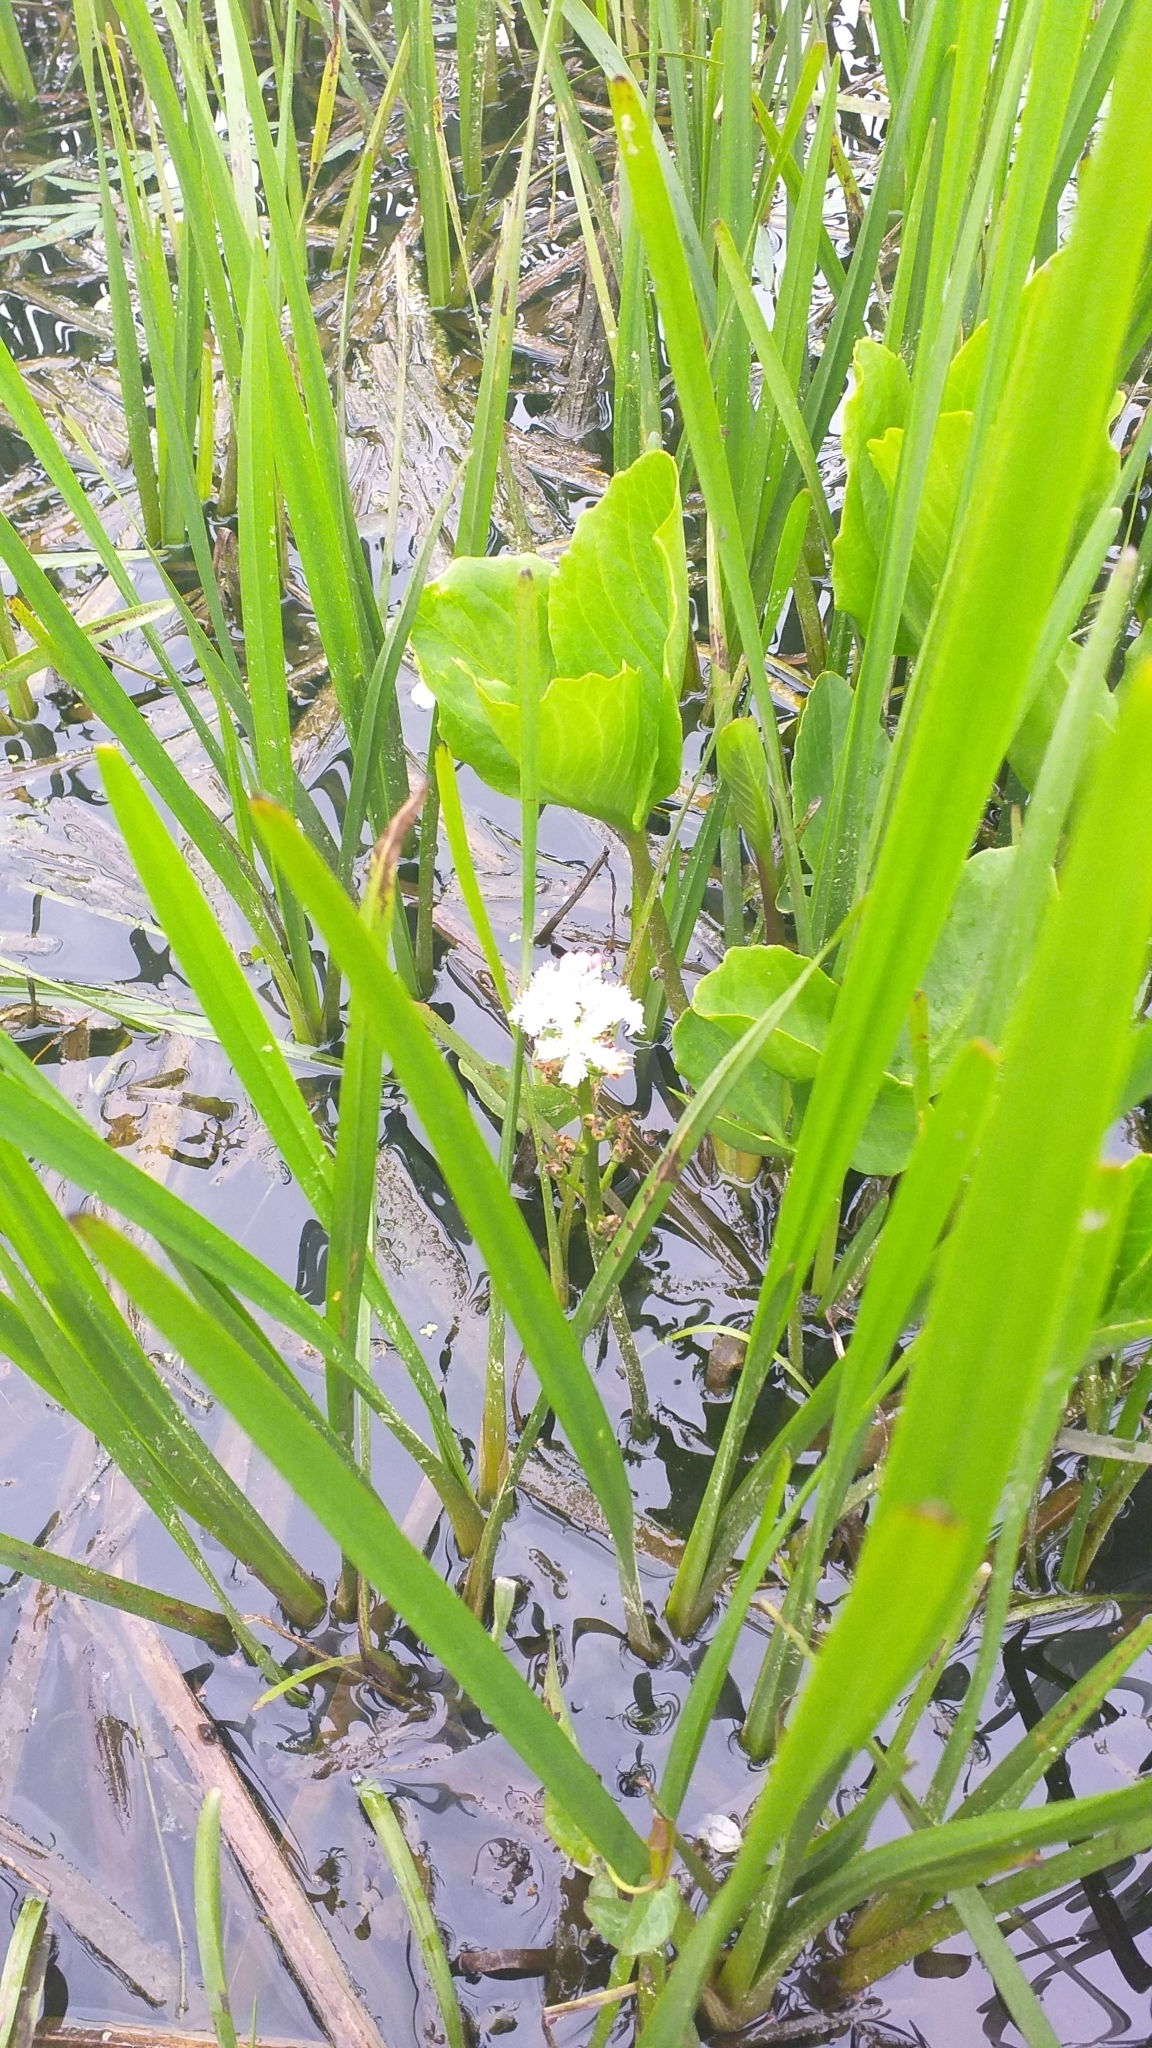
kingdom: Plantae
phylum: Tracheophyta
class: Magnoliopsida
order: Asterales
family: Menyanthaceae
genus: Menyanthes
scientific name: Menyanthes trifoliata
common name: Bogbean
